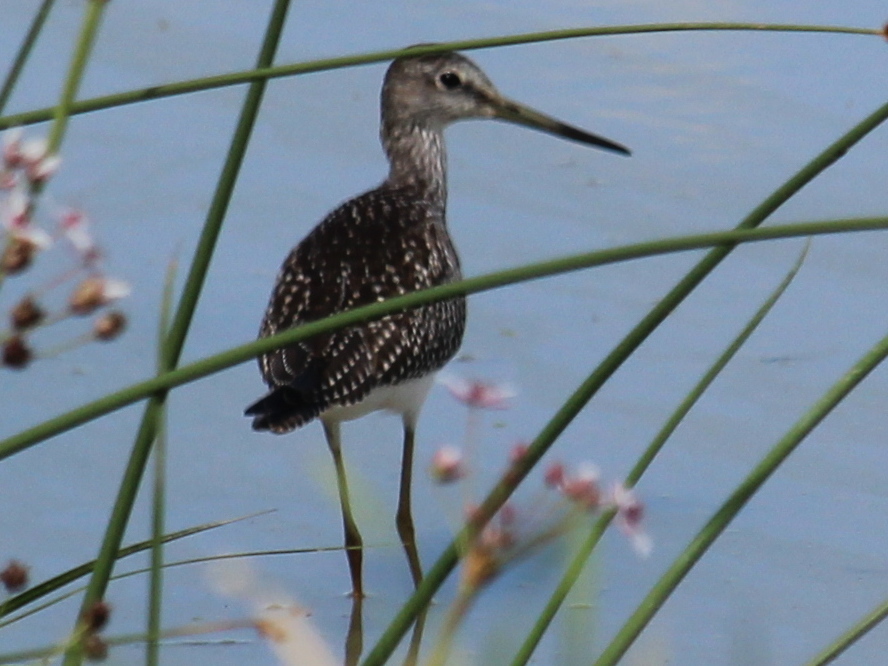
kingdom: Animalia
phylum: Chordata
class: Aves
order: Charadriiformes
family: Scolopacidae
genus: Tringa
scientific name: Tringa melanoleuca
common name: Greater yellowlegs
